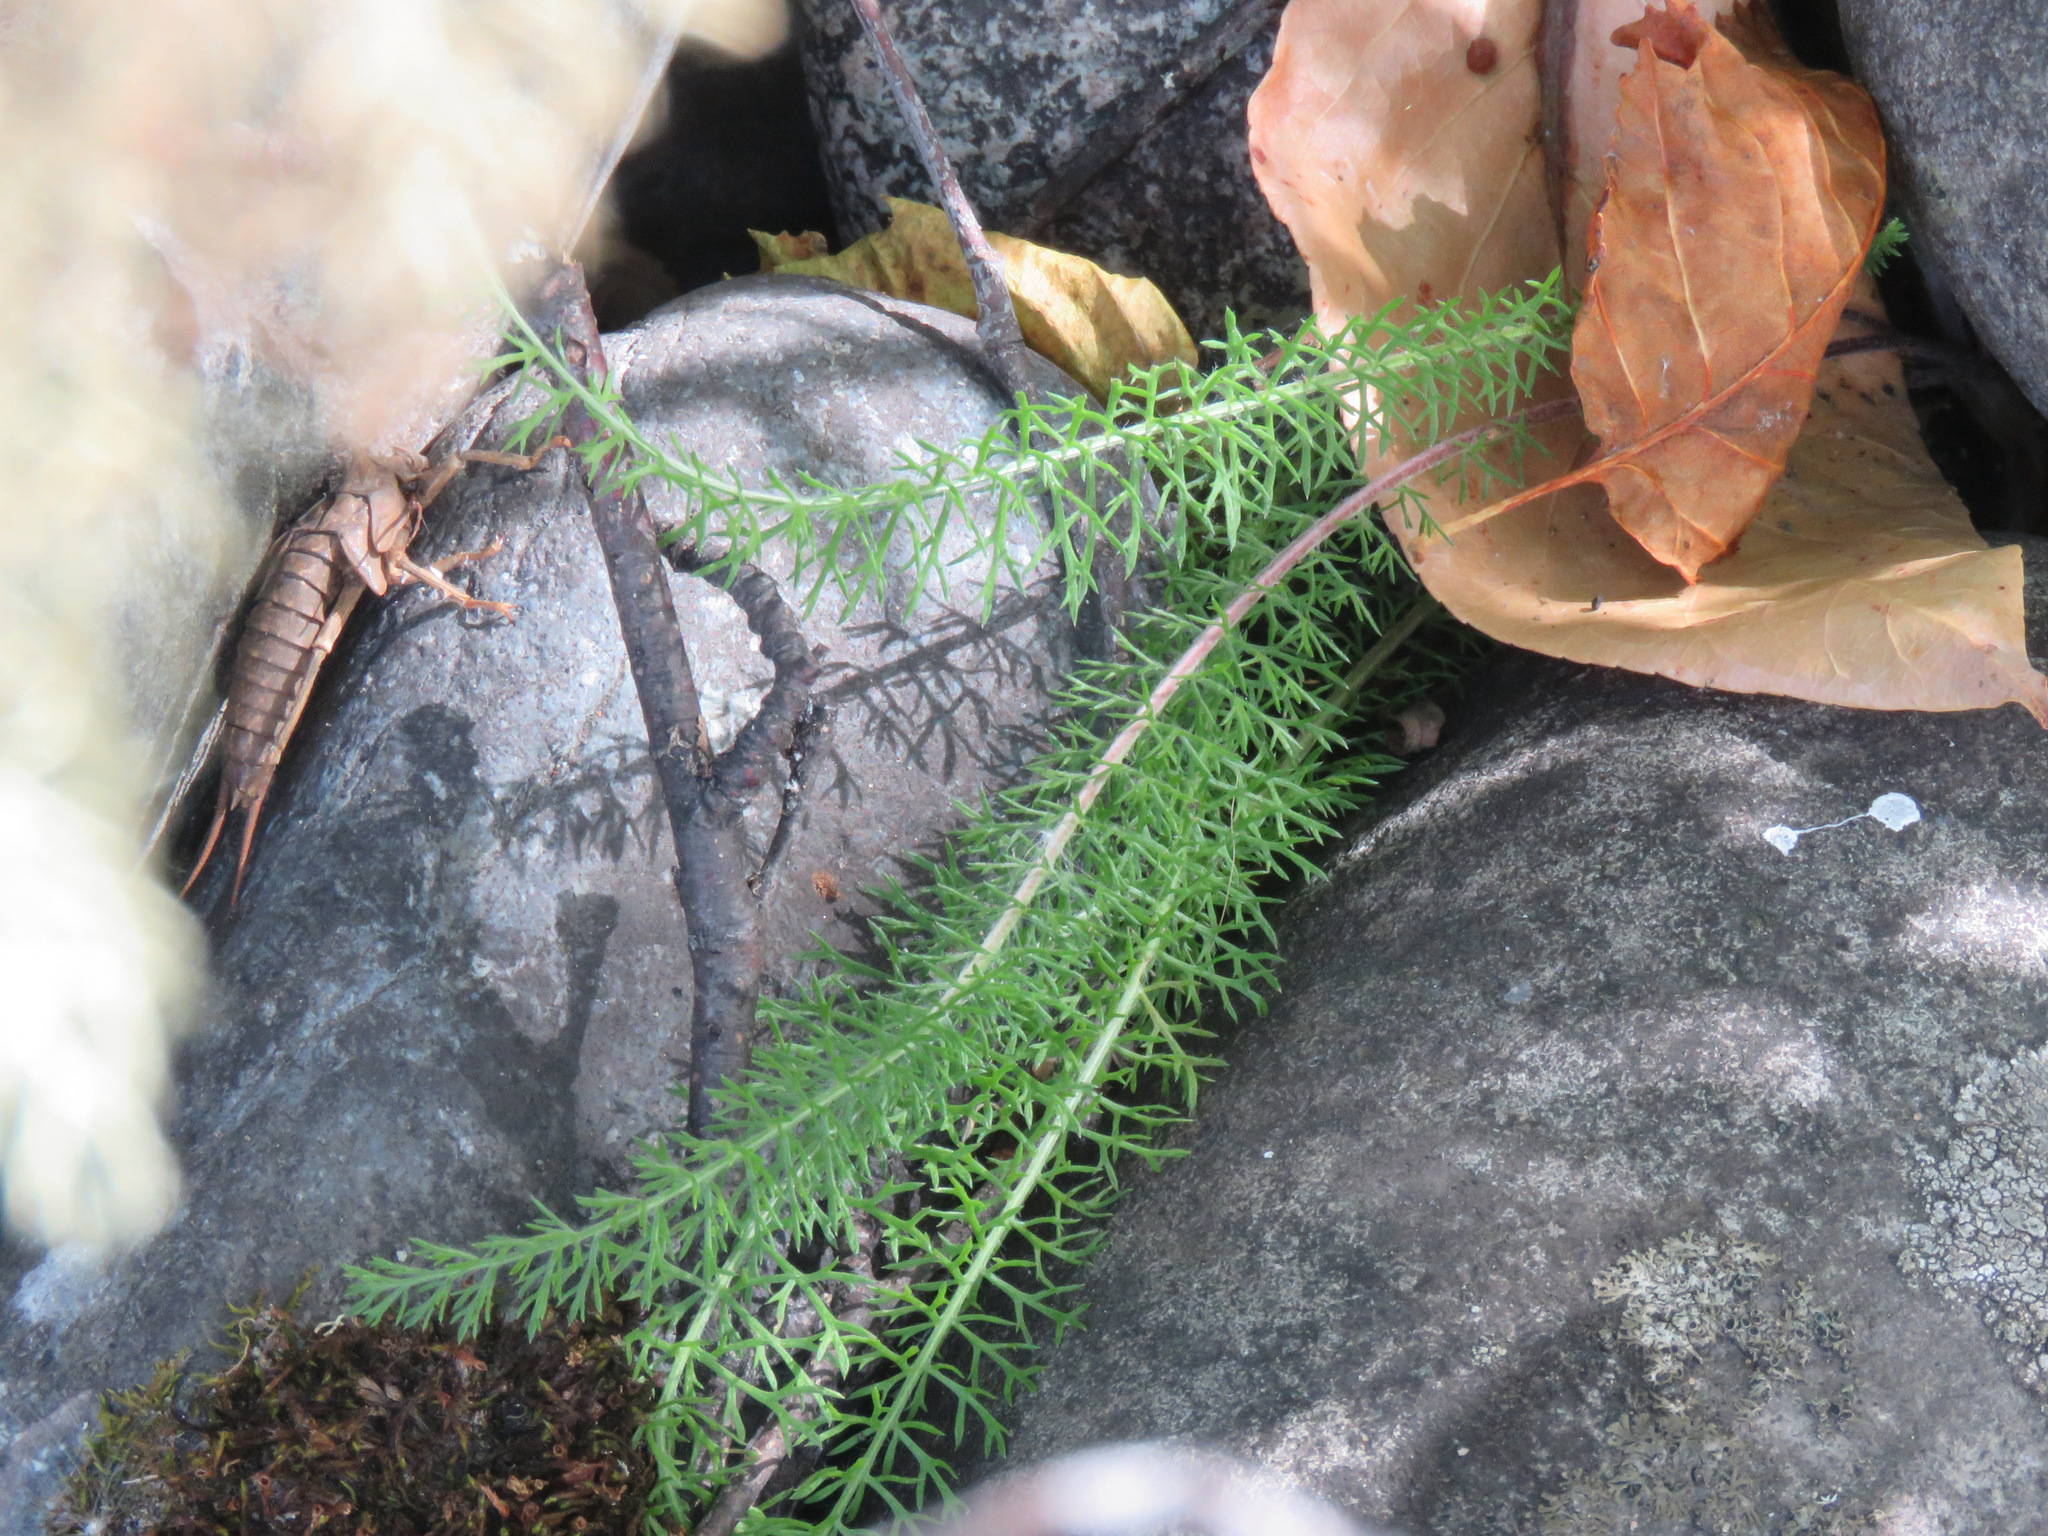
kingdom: Plantae
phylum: Tracheophyta
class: Magnoliopsida
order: Asterales
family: Asteraceae
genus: Achillea
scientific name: Achillea millefolium
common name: Yarrow
